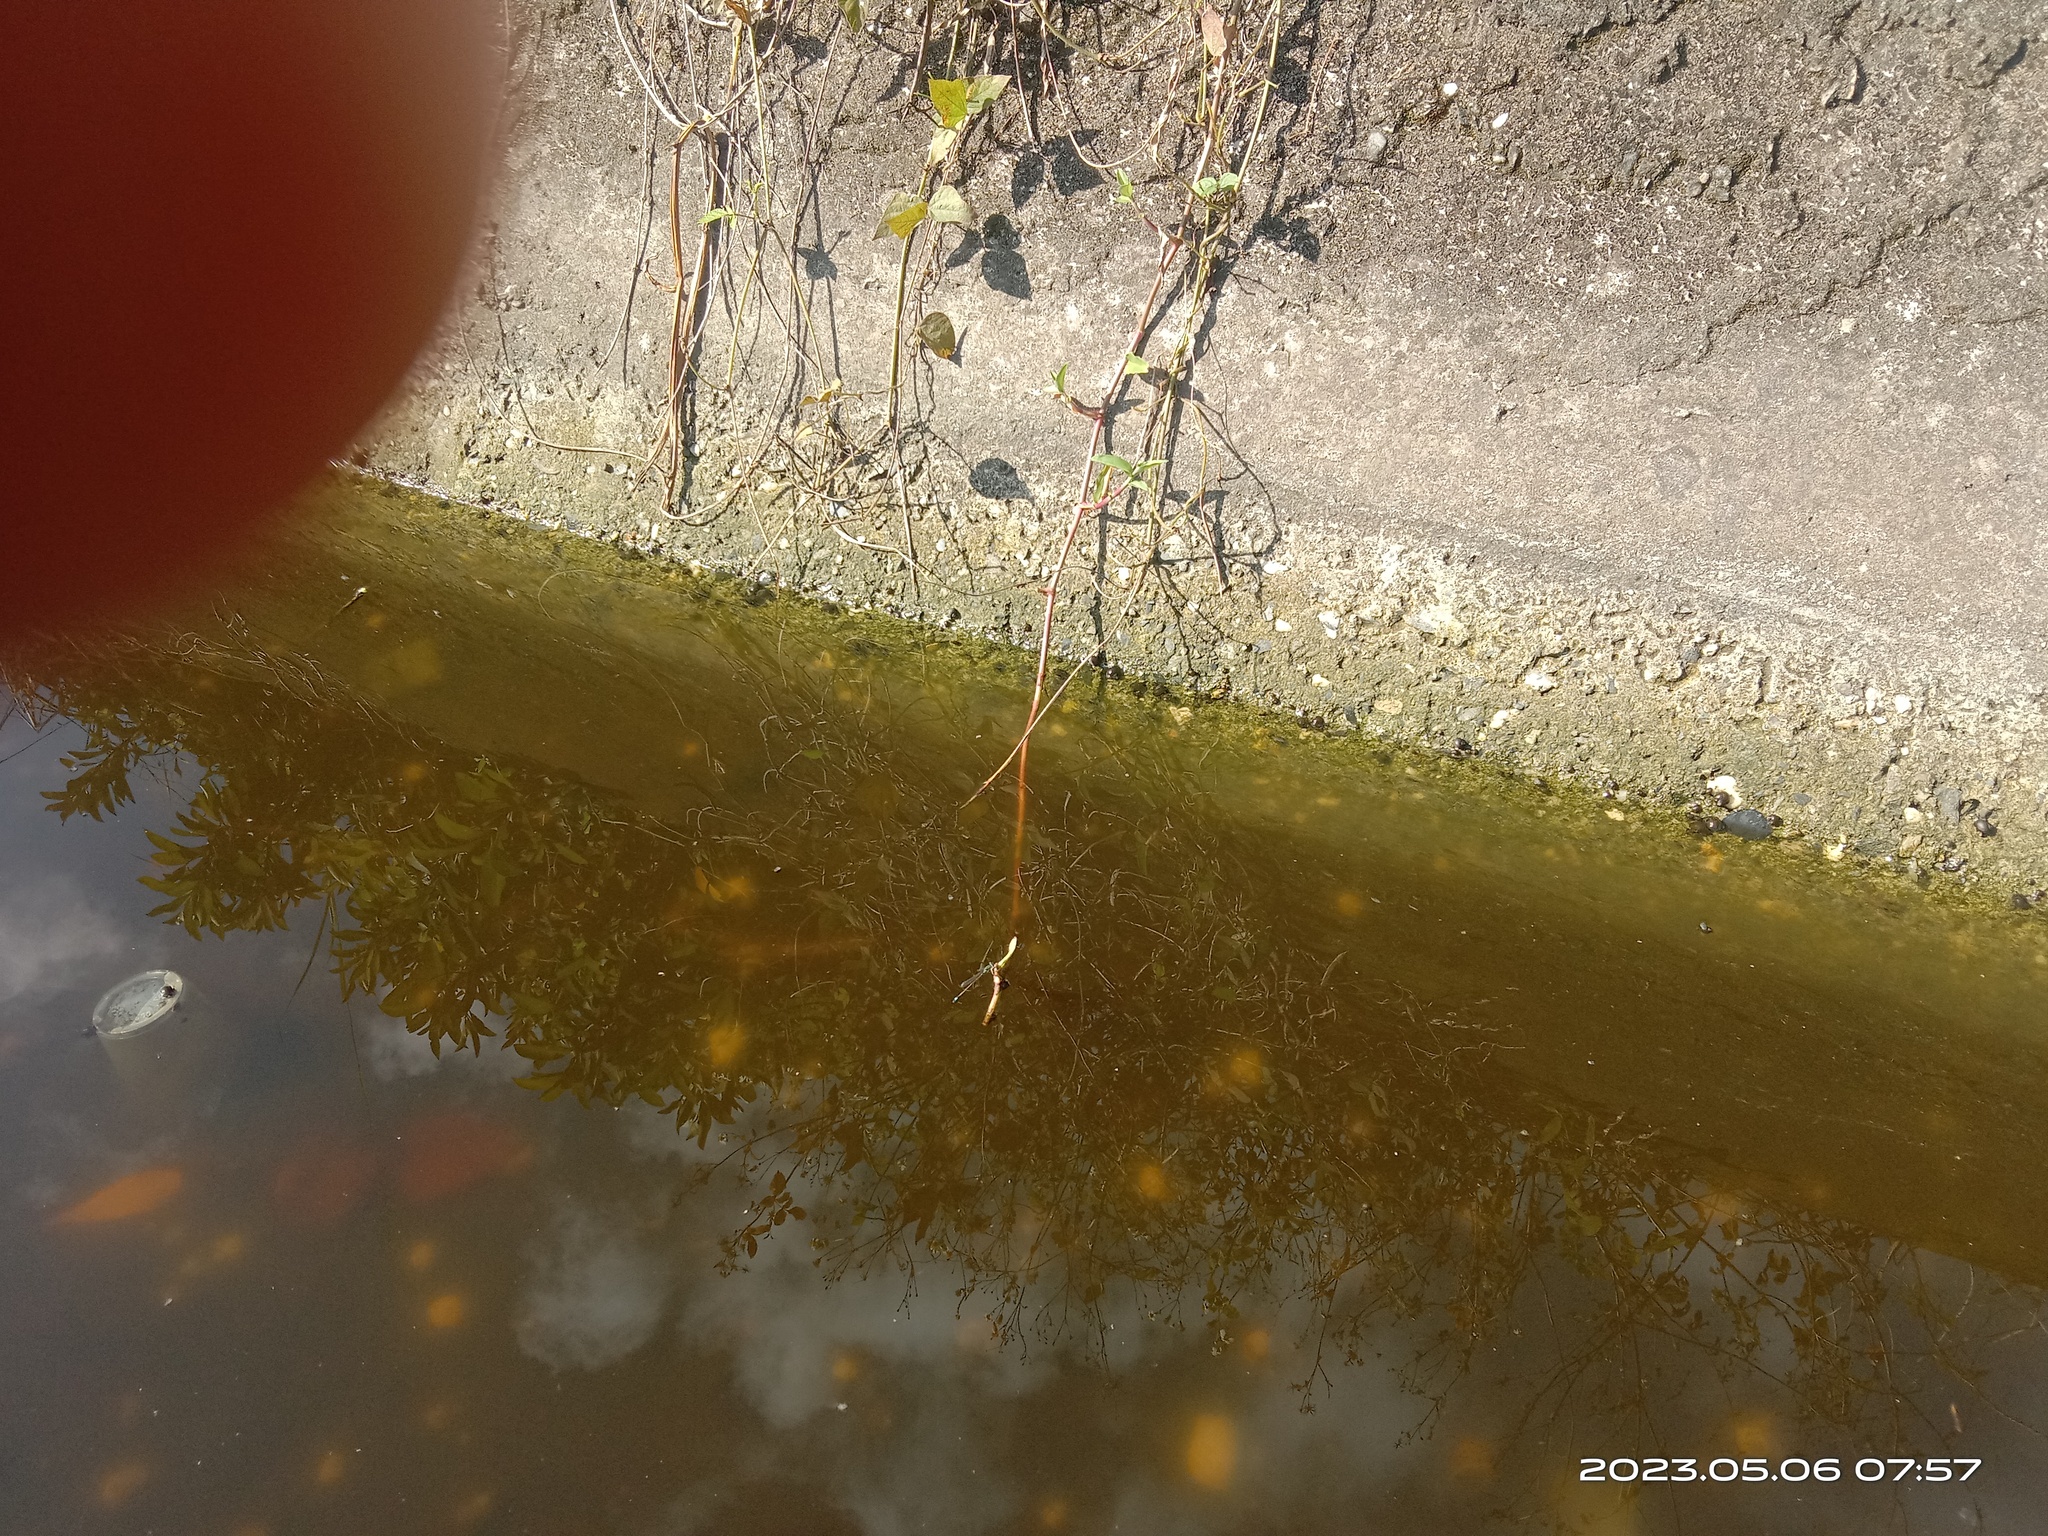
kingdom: Animalia
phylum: Arthropoda
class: Insecta
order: Odonata
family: Coenagrionidae
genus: Ischnura
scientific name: Ischnura senegalensis
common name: Tropical bluetail
